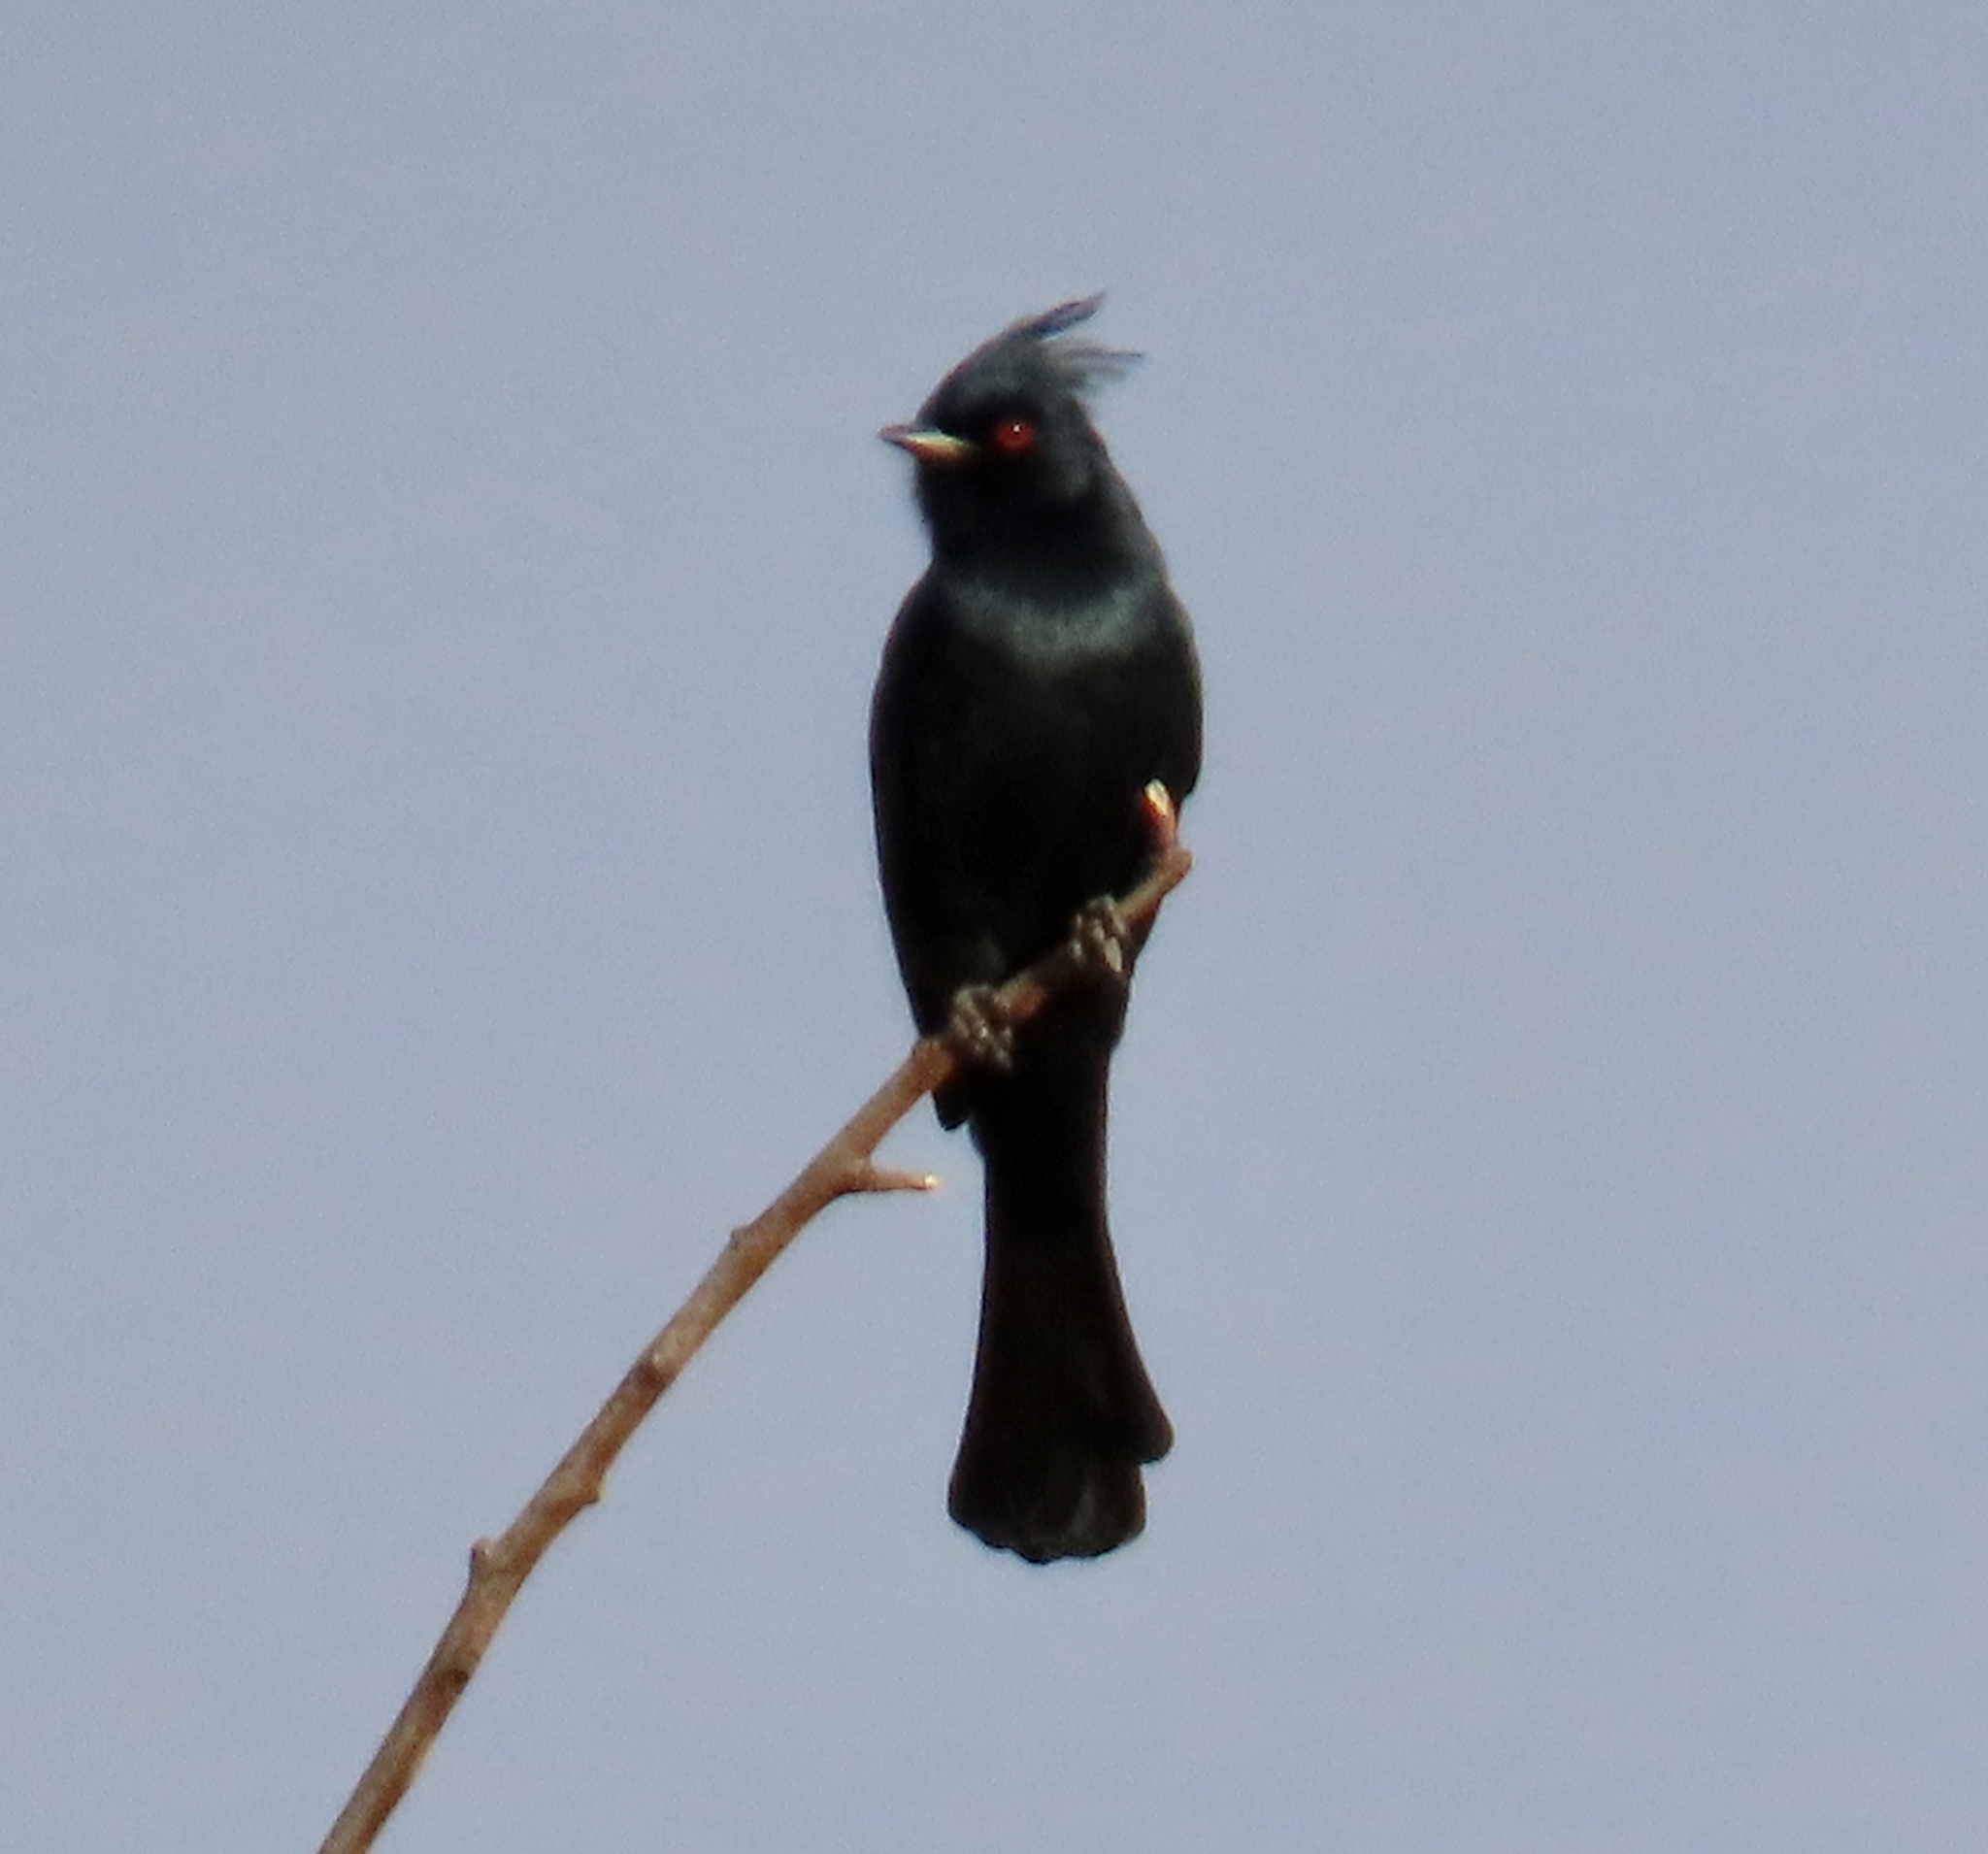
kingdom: Animalia
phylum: Chordata
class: Aves
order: Passeriformes
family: Ptilogonatidae
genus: Phainopepla
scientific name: Phainopepla nitens
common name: Phainopepla
